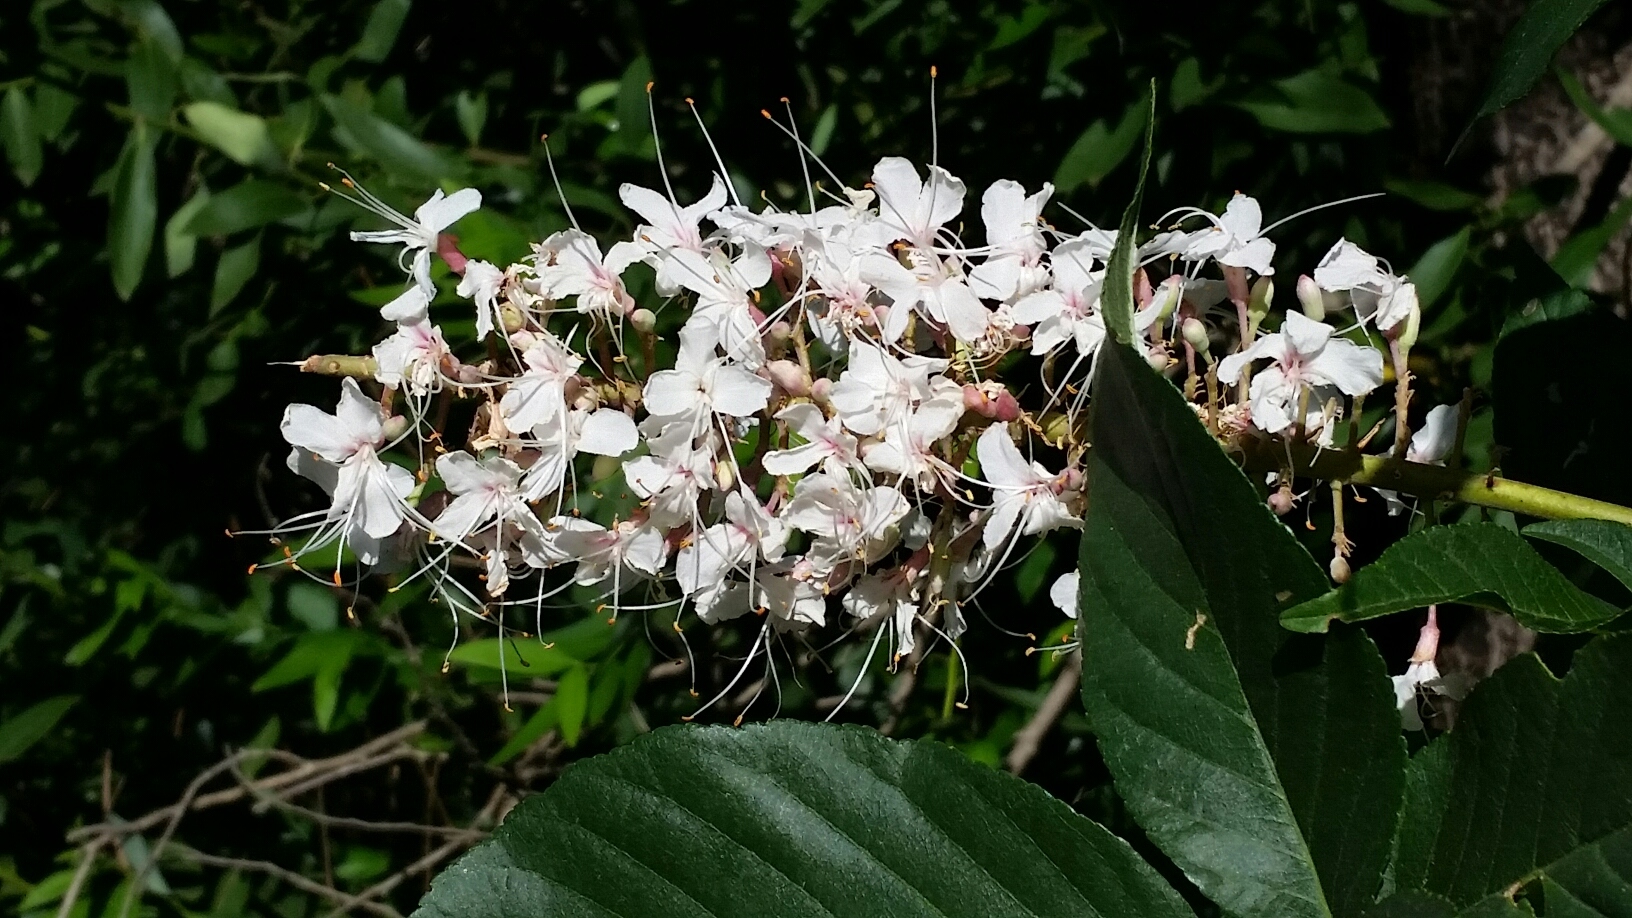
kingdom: Plantae
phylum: Tracheophyta
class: Magnoliopsida
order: Sapindales
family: Sapindaceae
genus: Aesculus
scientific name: Aesculus californica
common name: California buckeye
